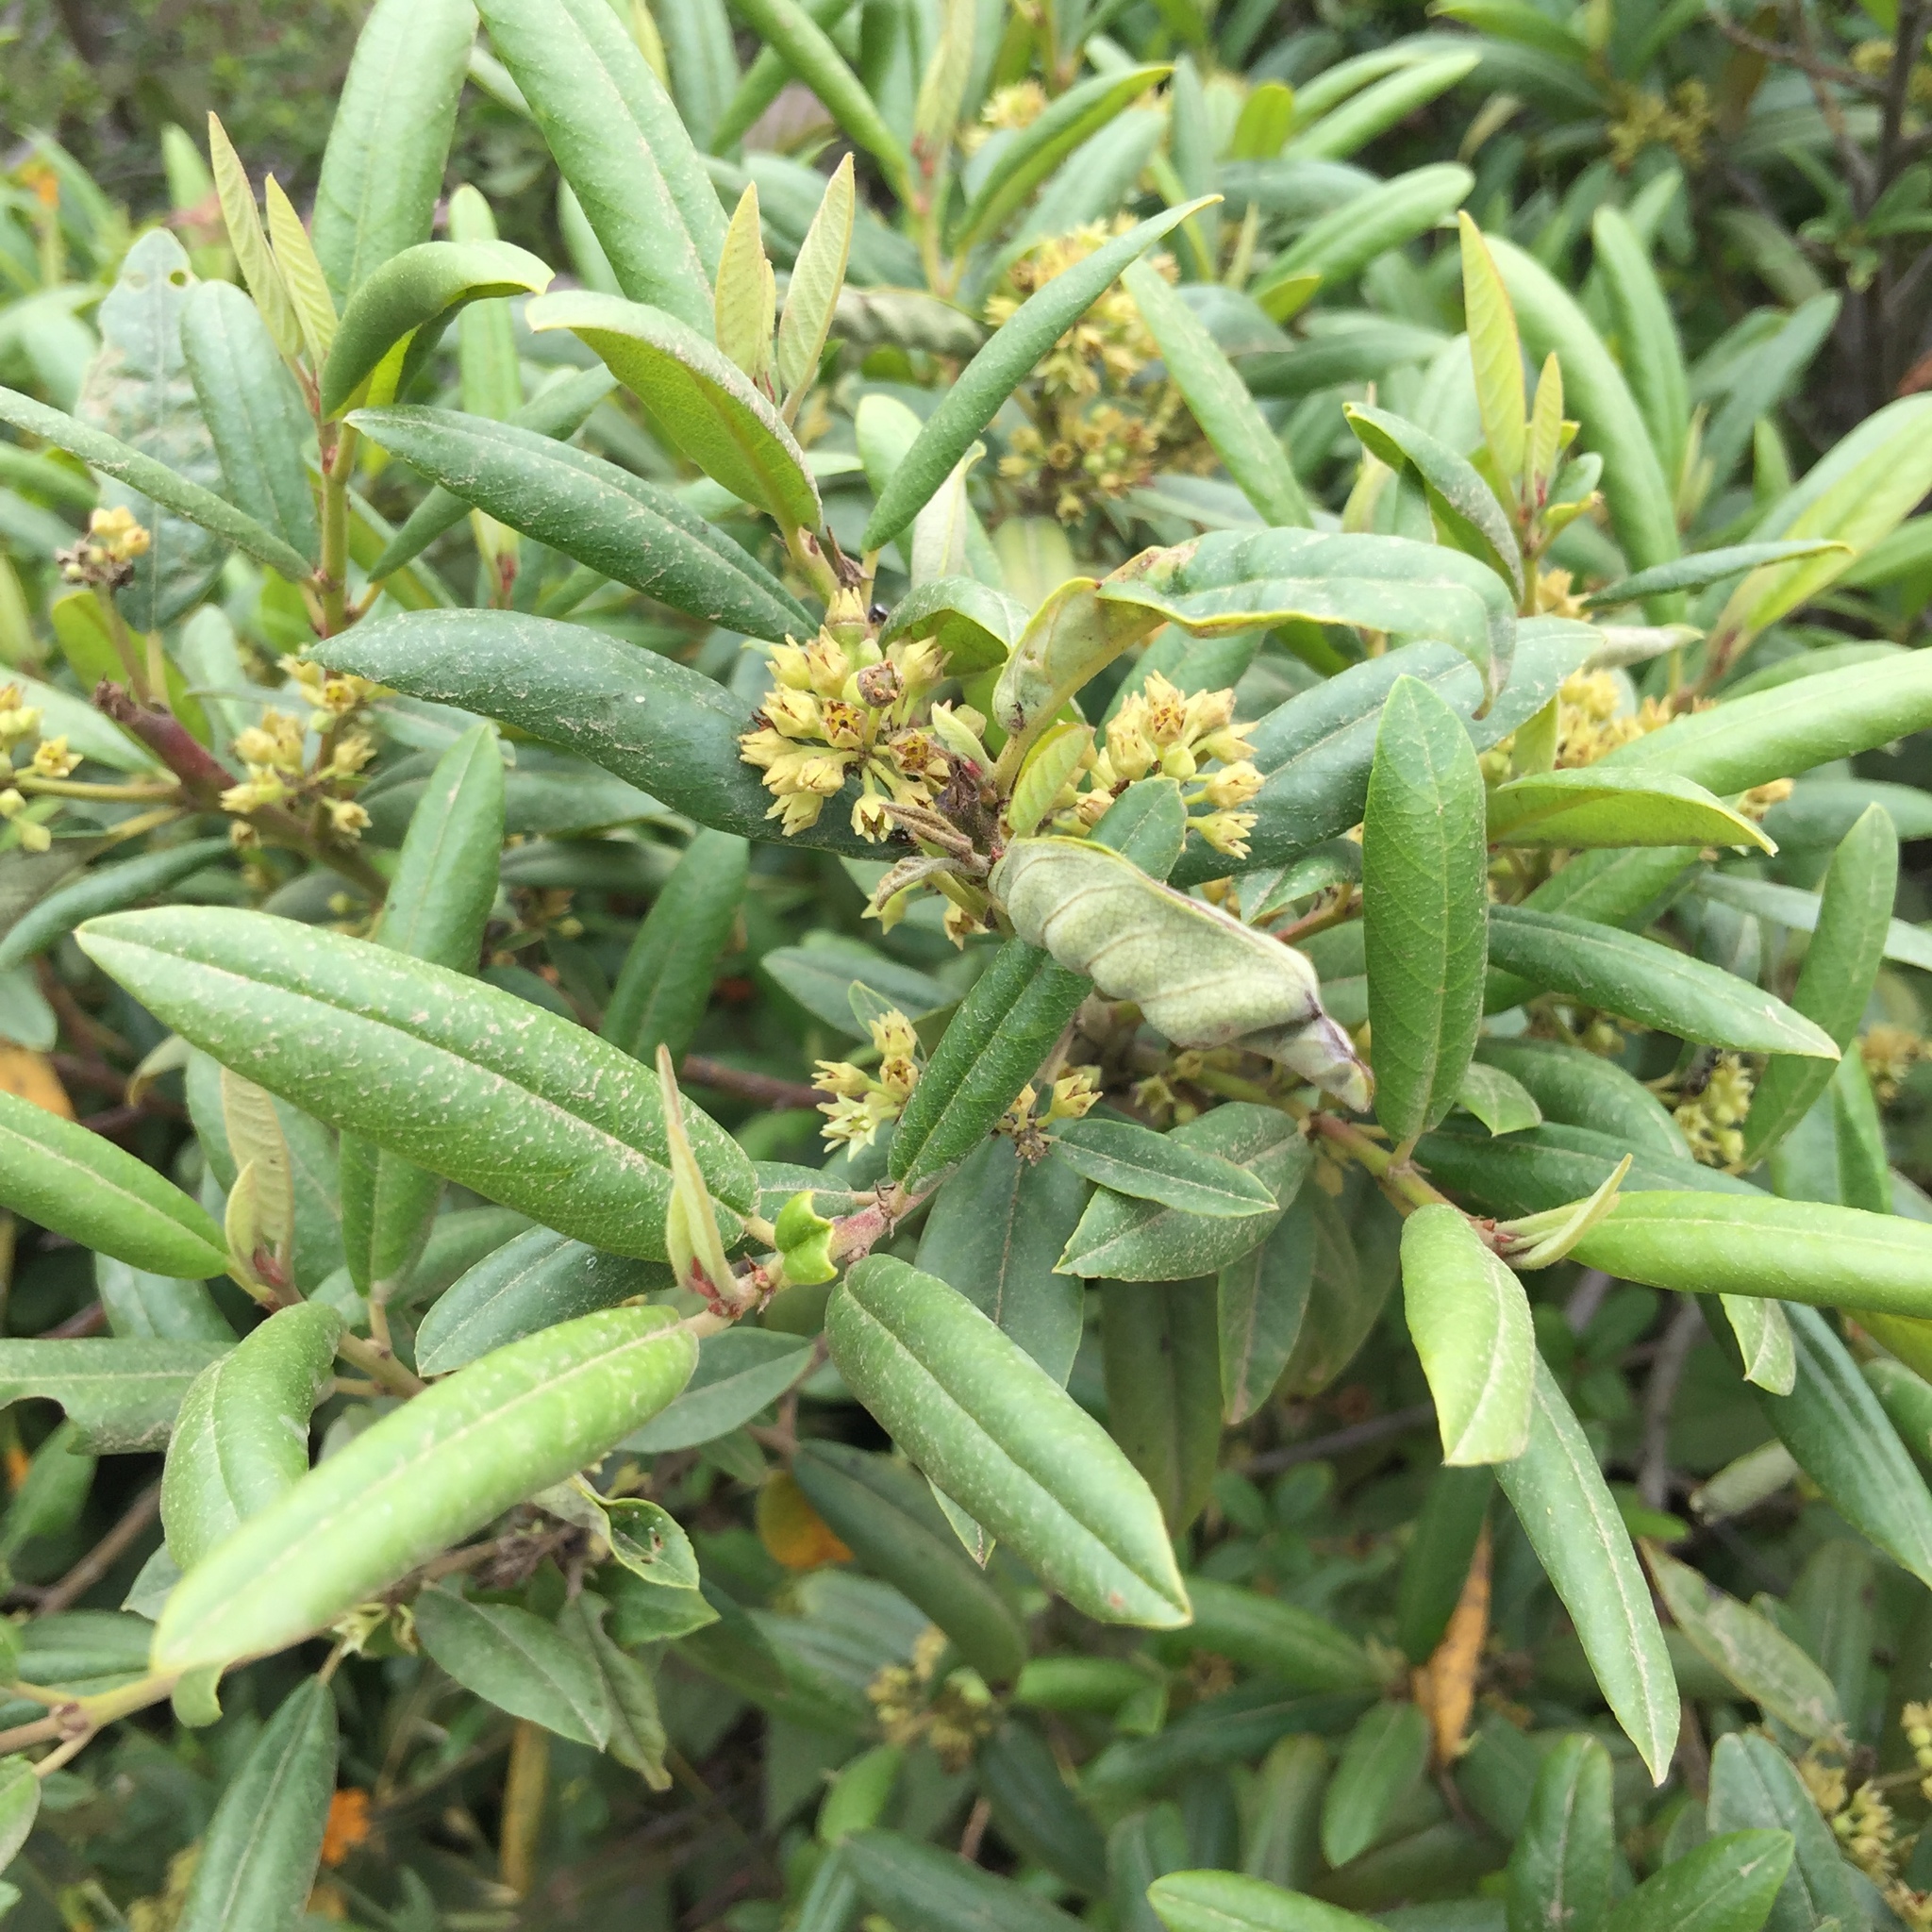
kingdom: Plantae
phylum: Tracheophyta
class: Magnoliopsida
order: Rosales
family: Rhamnaceae
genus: Frangula
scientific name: Frangula californica
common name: California buckthorn
